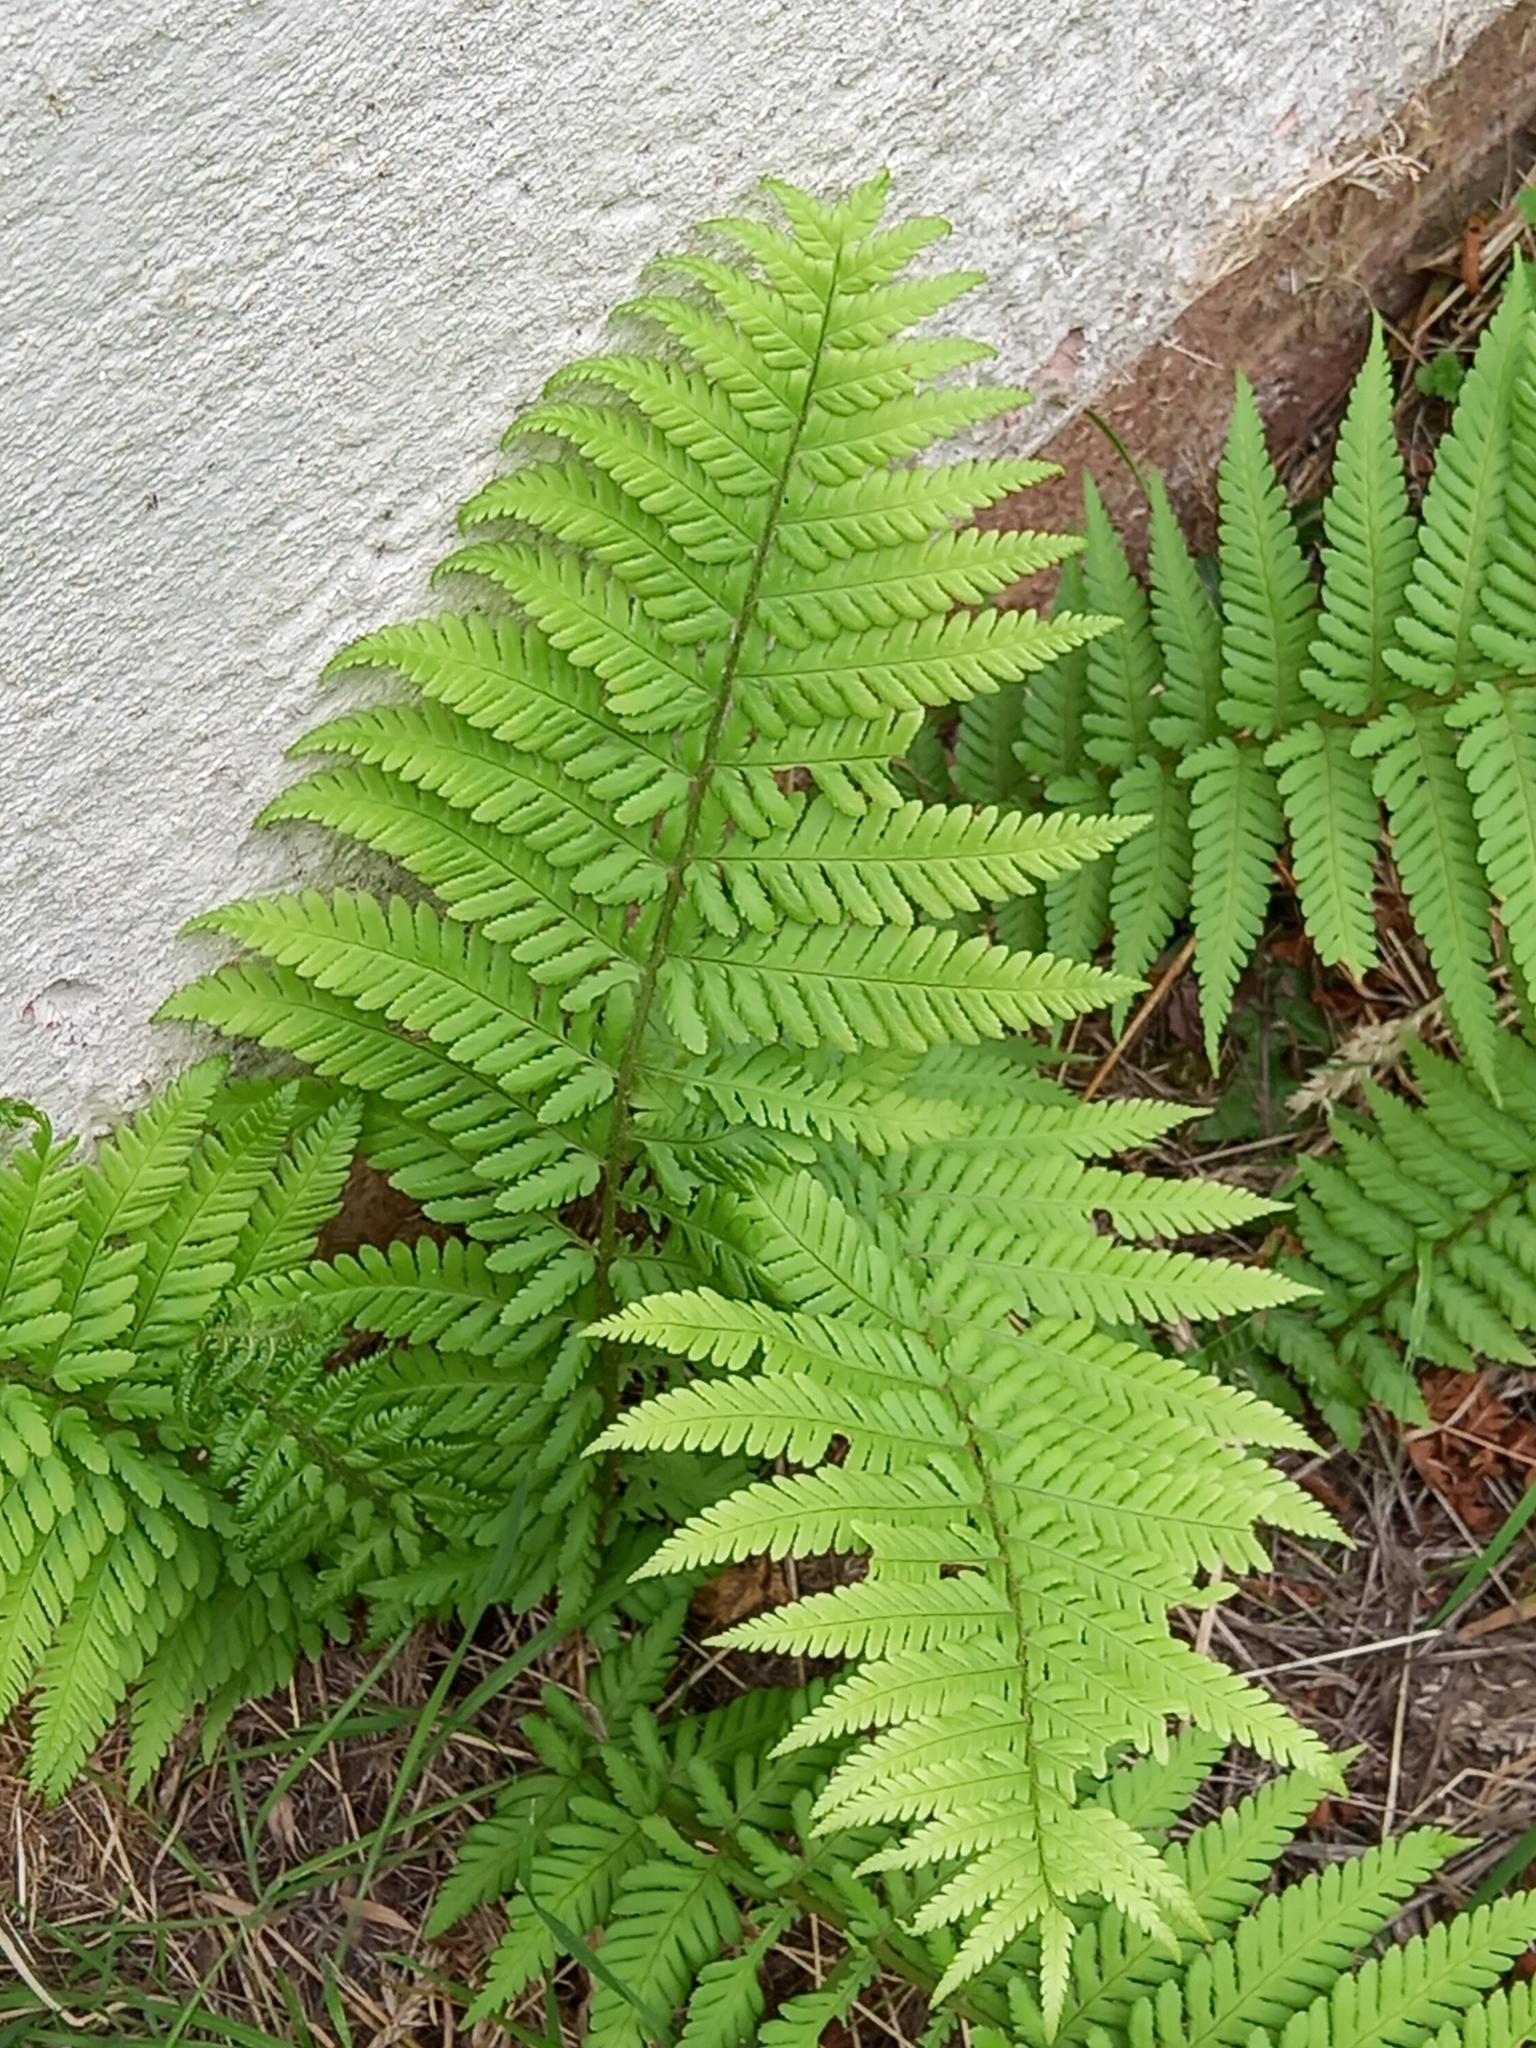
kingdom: Plantae
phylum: Tracheophyta
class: Polypodiopsida
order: Polypodiales
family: Dryopteridaceae
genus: Dryopteris
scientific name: Dryopteris filix-mas
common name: Male fern
